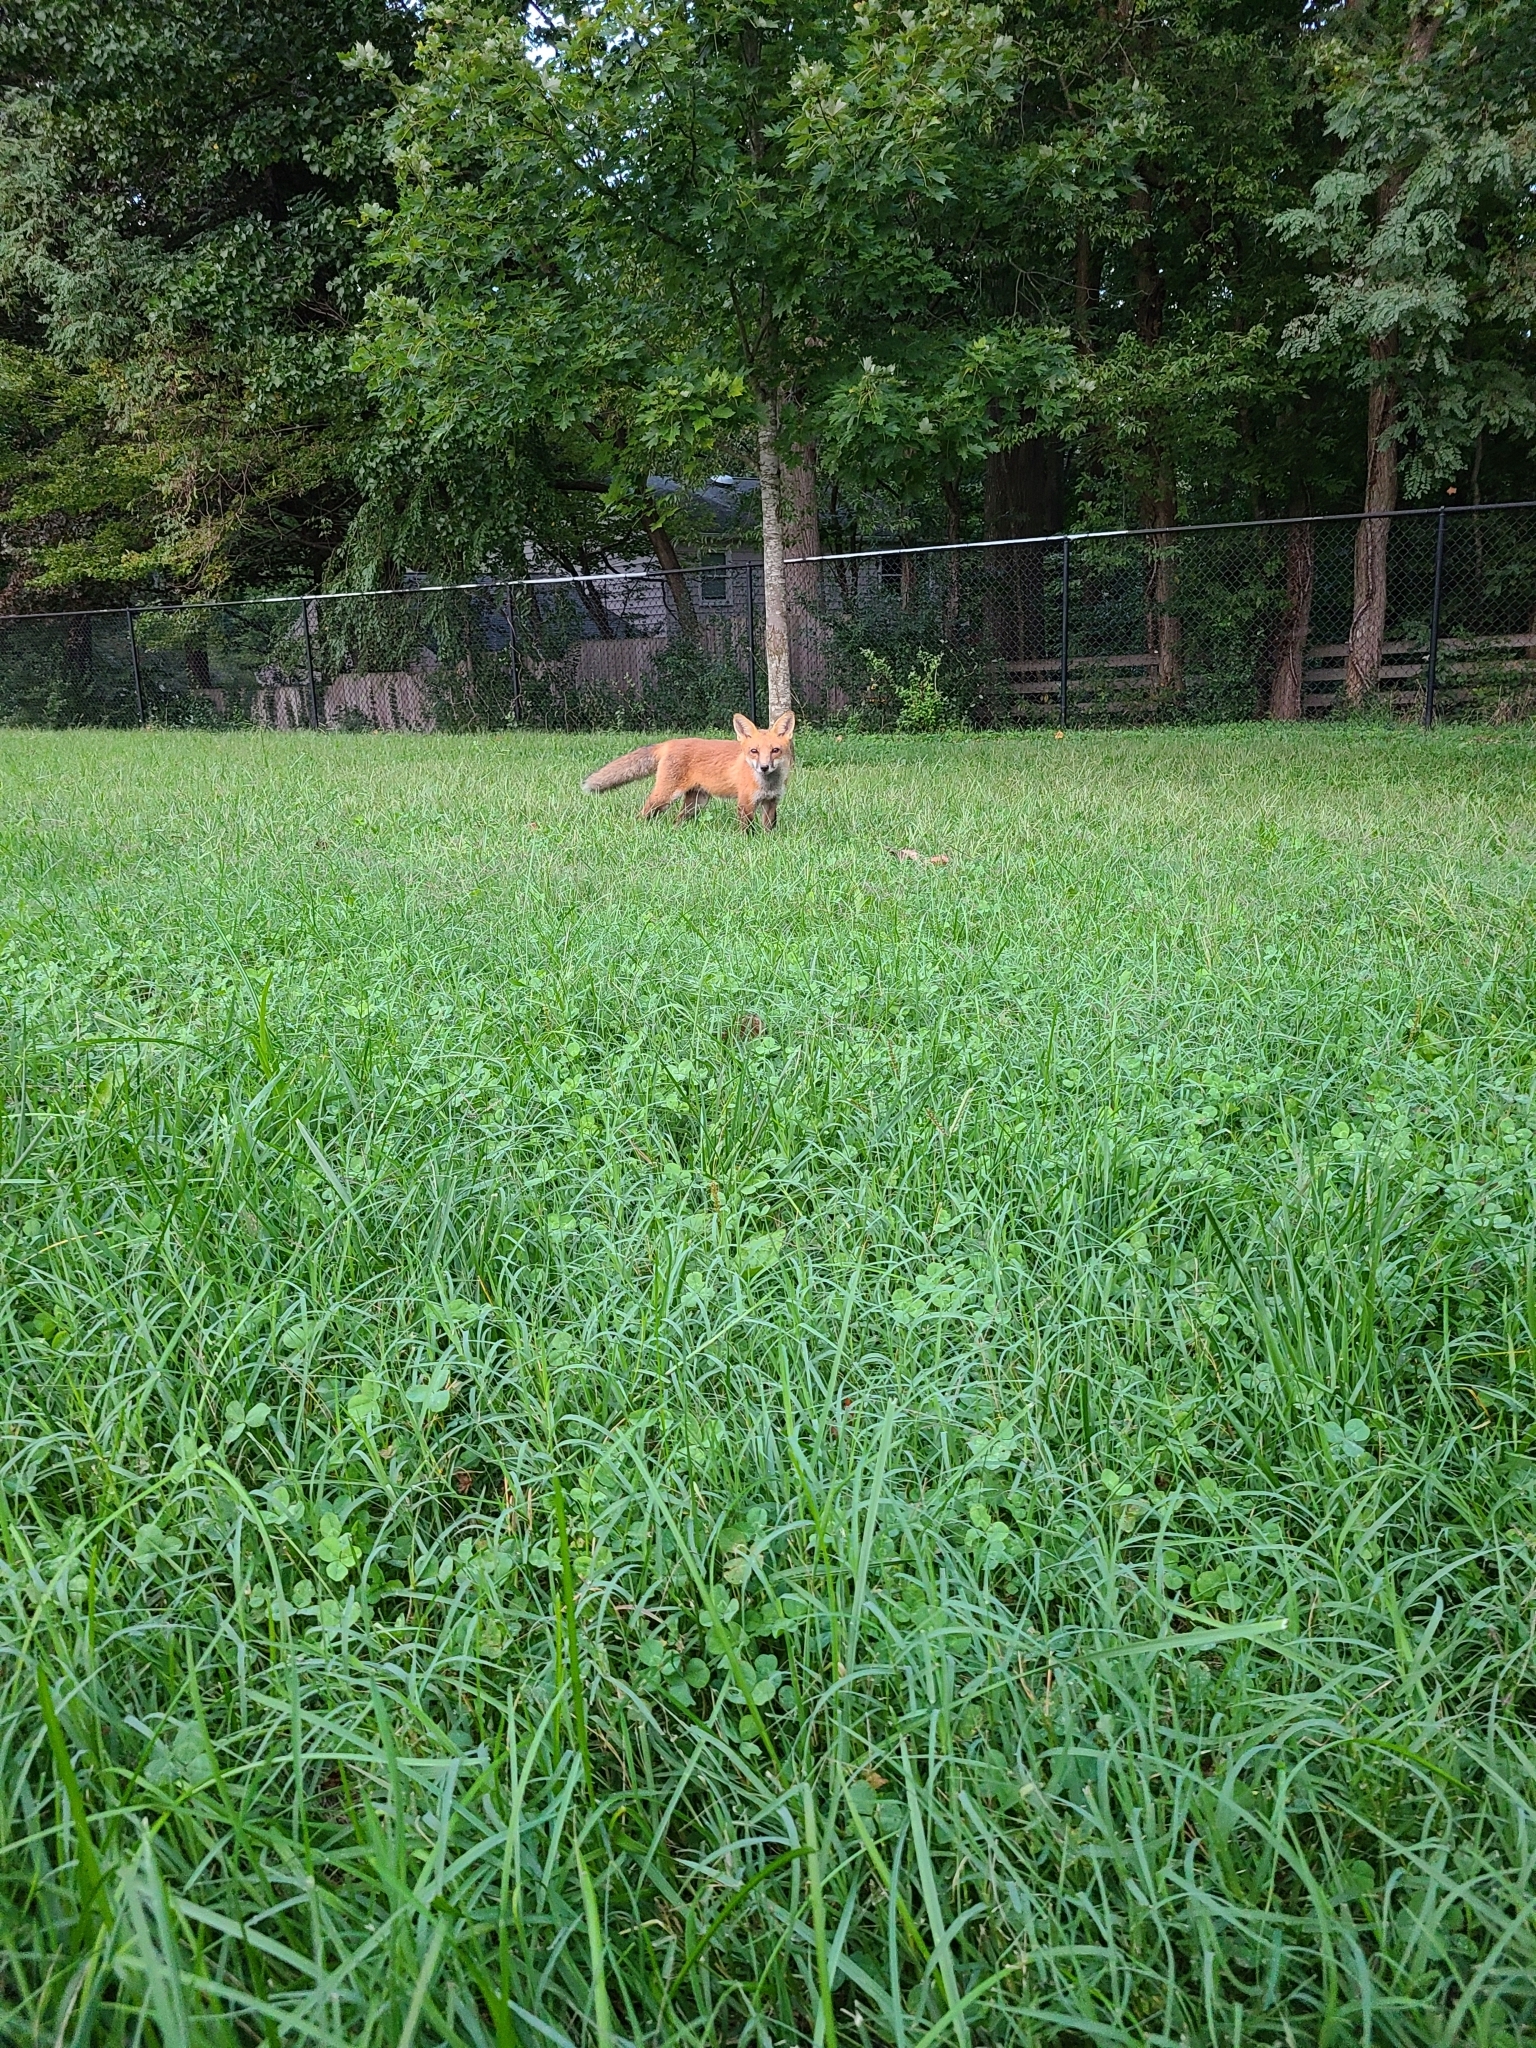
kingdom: Animalia
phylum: Chordata
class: Mammalia
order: Carnivora
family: Canidae
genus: Vulpes
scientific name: Vulpes vulpes
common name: Red fox
